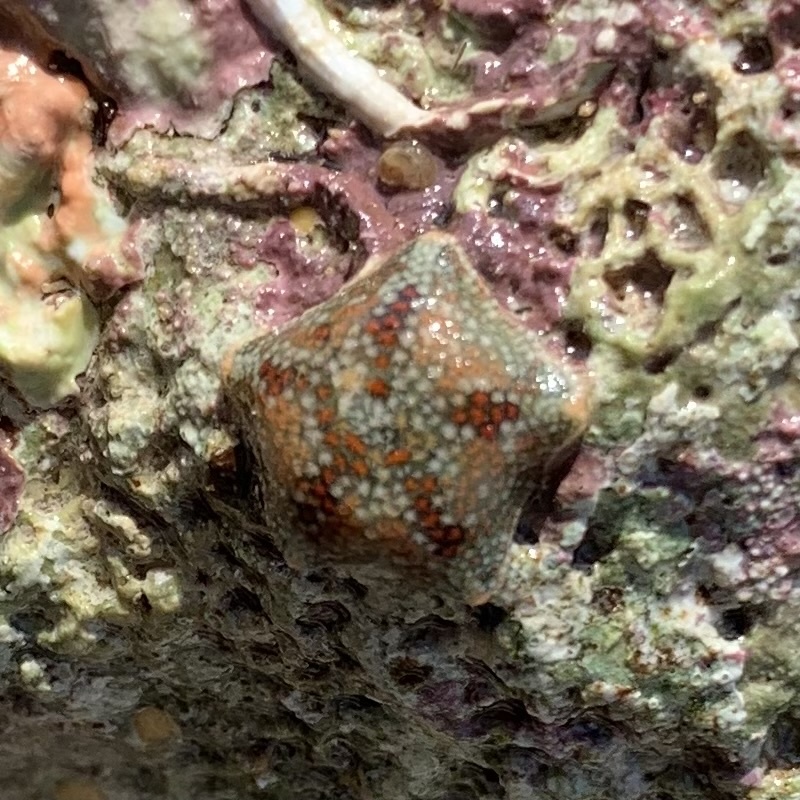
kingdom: Animalia
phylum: Echinodermata
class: Asteroidea
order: Valvatida
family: Asterinidae
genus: Asterina
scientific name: Asterina gibbosa
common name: Cushion star
